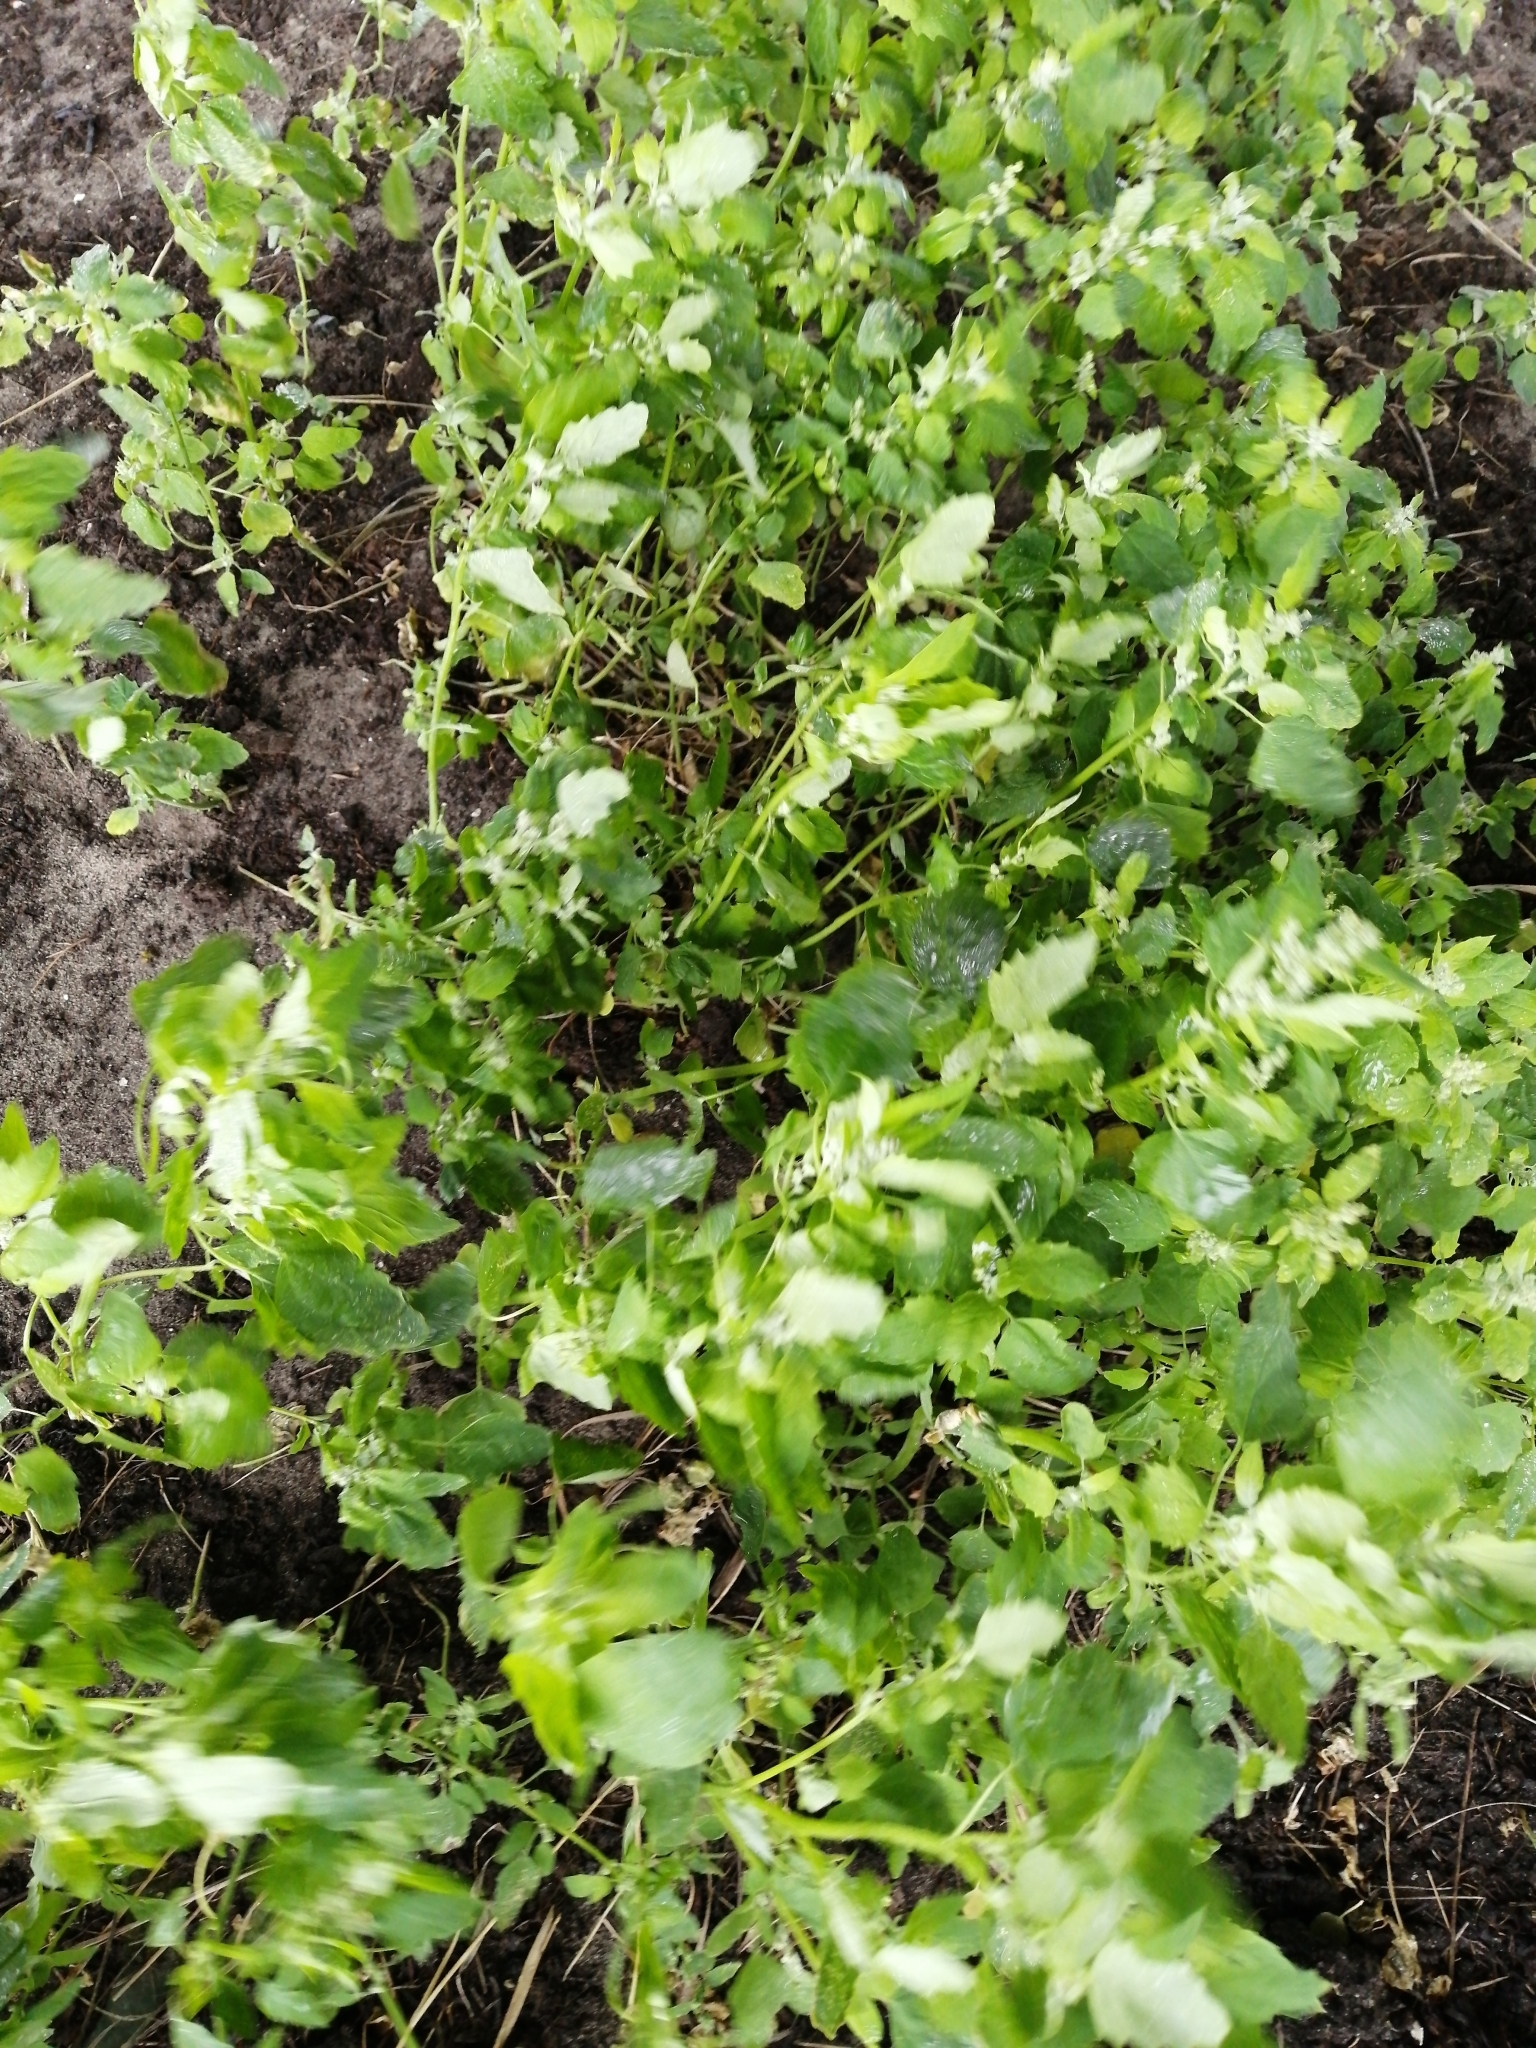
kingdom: Plantae
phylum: Tracheophyta
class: Magnoliopsida
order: Caryophyllales
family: Amaranthaceae
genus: Chenopodium
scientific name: Chenopodium album
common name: Fat-hen
